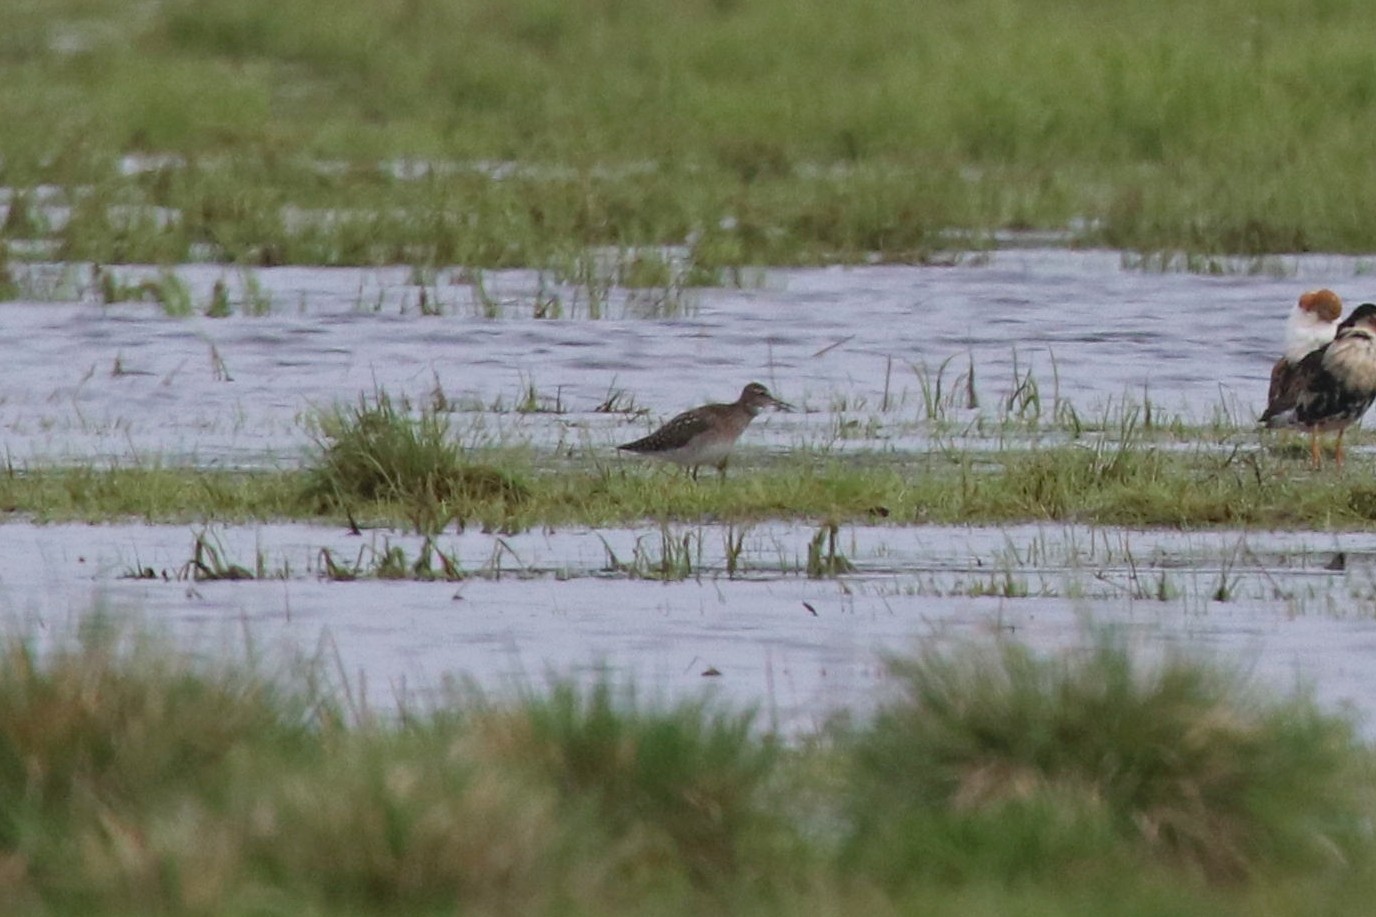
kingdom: Animalia
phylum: Chordata
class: Aves
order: Charadriiformes
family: Scolopacidae
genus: Tringa
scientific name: Tringa glareola
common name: Wood sandpiper
